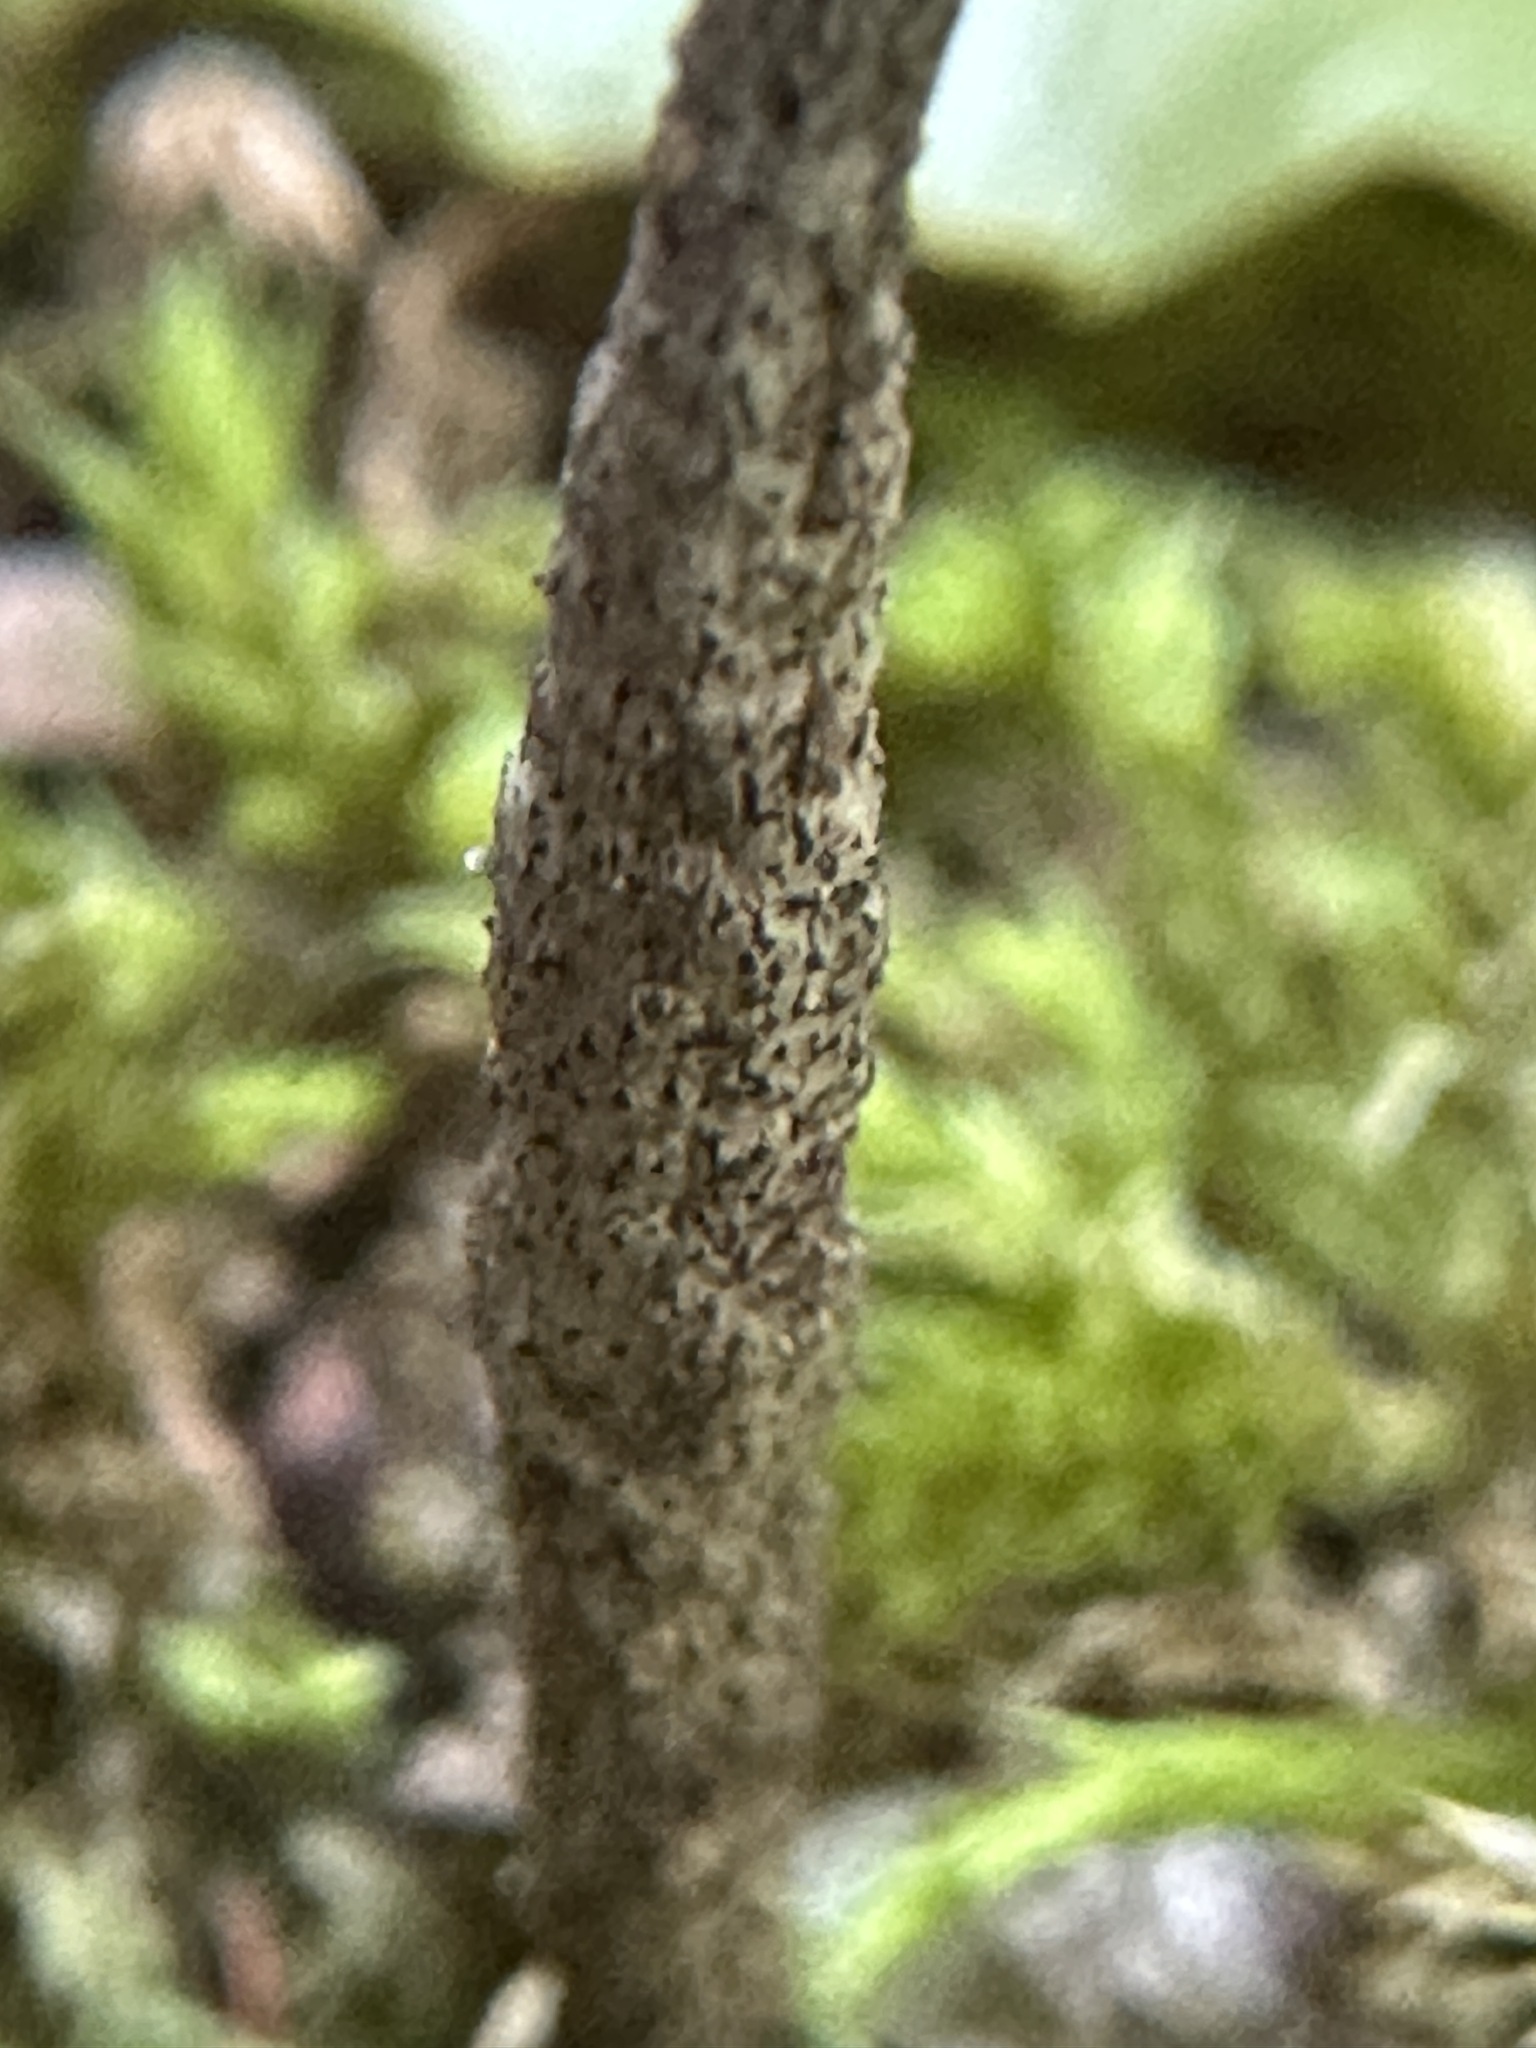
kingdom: Fungi
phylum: Ascomycota
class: Sordariomycetes
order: Xylariales
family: Xylariaceae
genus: Xylaria
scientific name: Xylaria hypoxylon
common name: Candle-snuff fungus
